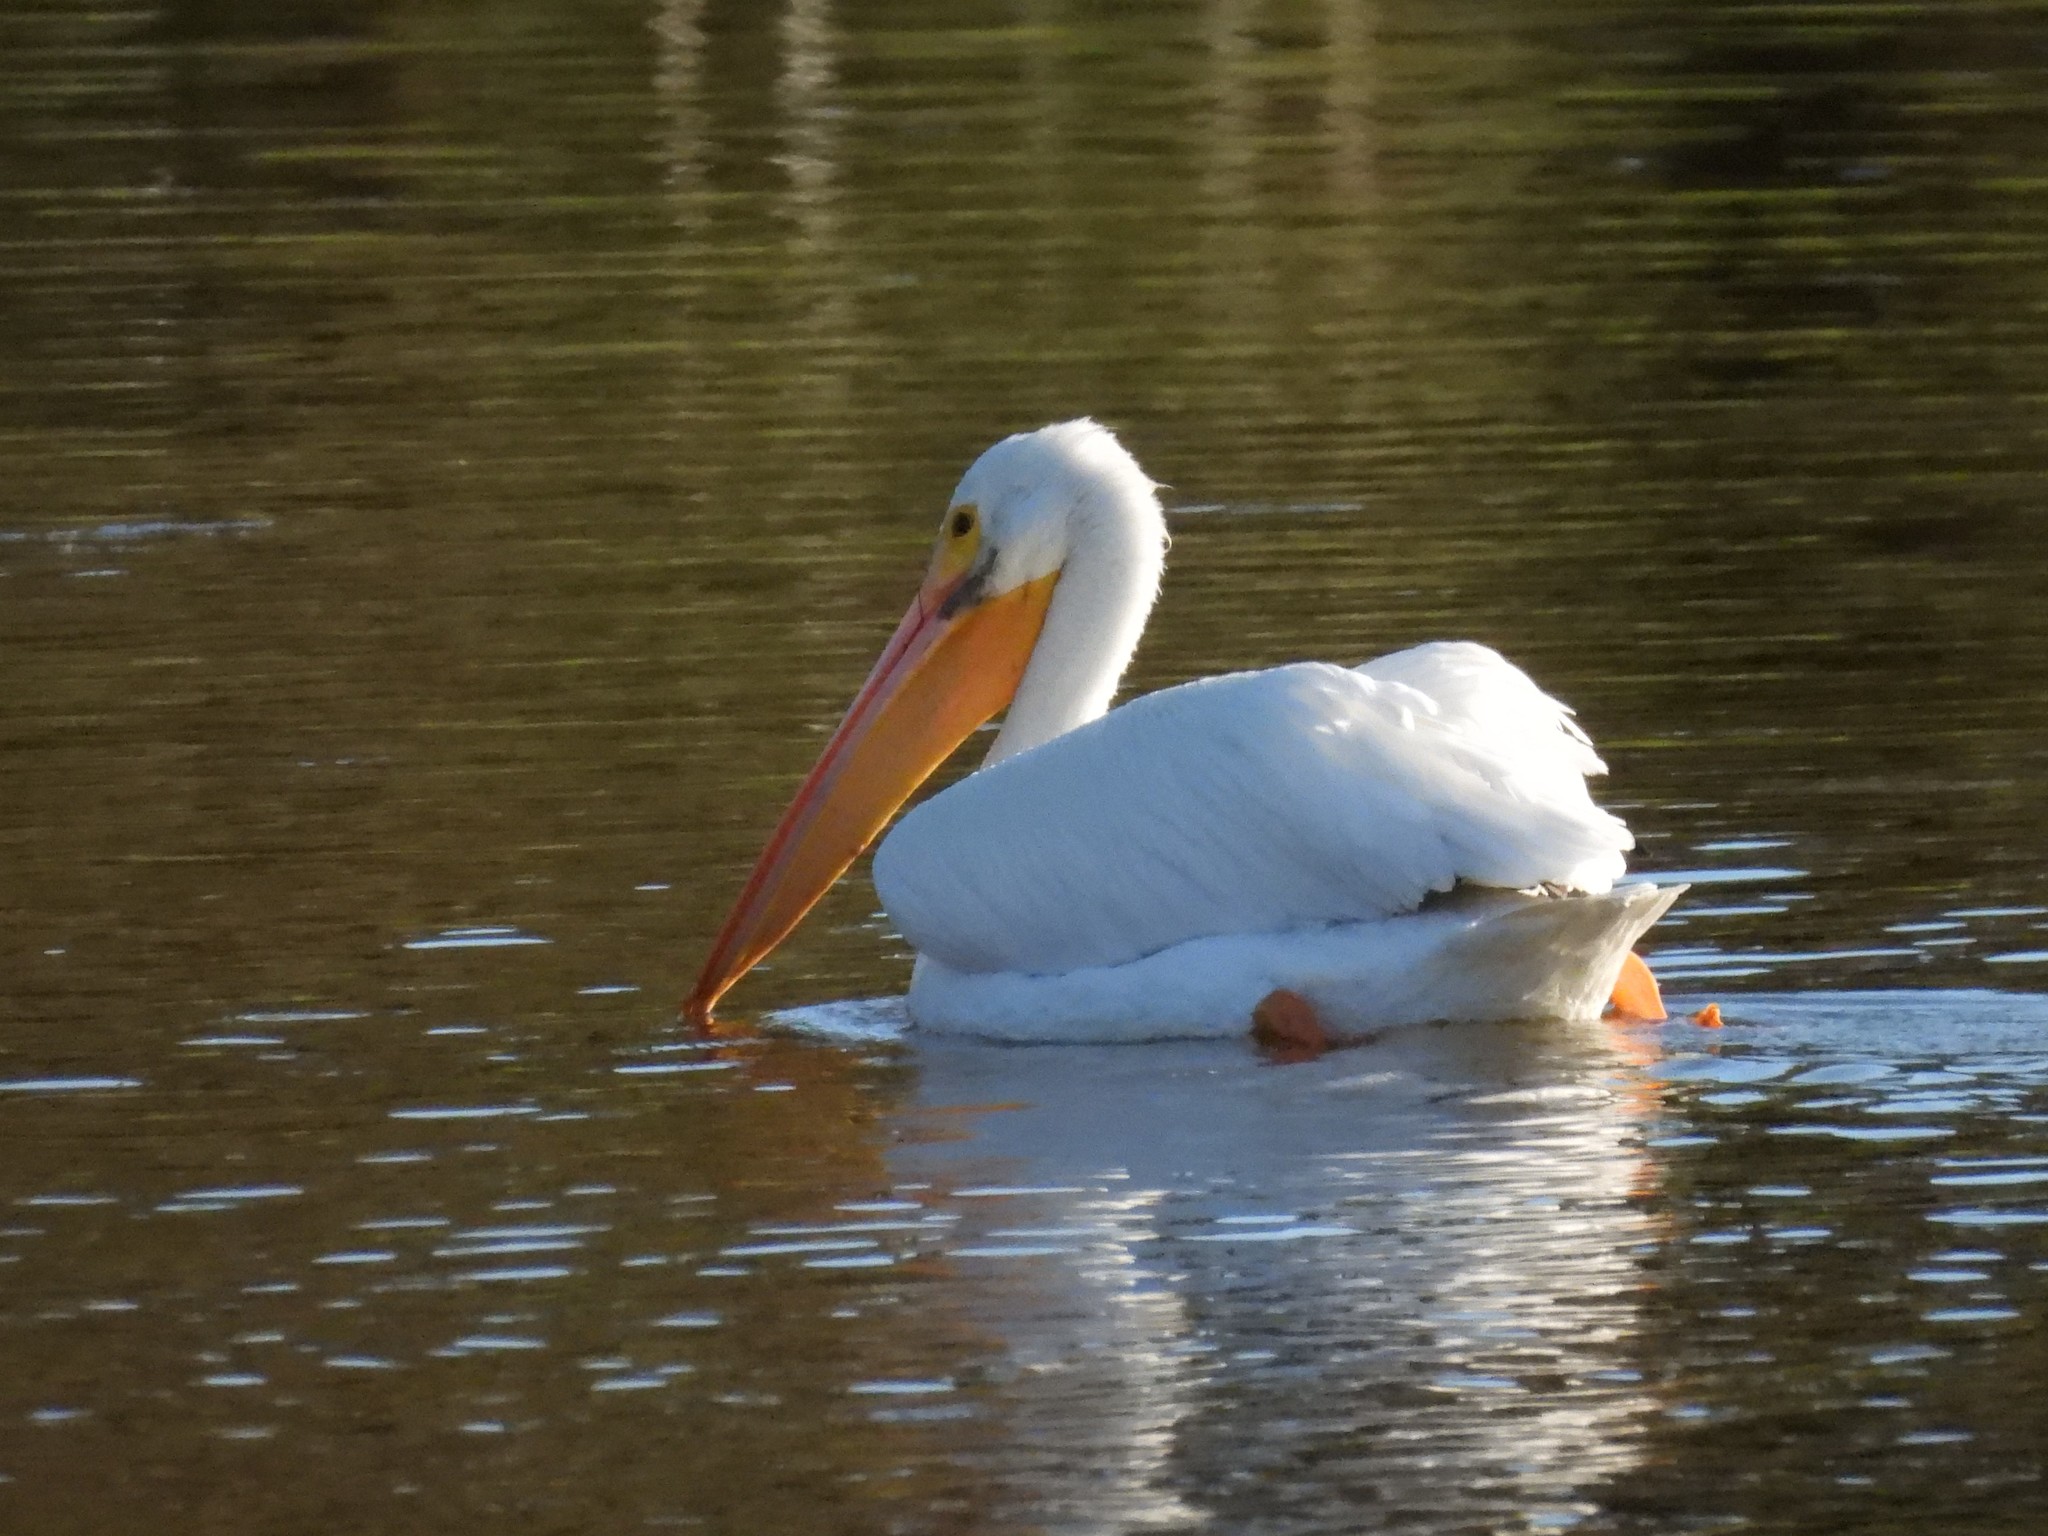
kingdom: Animalia
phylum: Chordata
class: Aves
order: Pelecaniformes
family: Pelecanidae
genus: Pelecanus
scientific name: Pelecanus erythrorhynchos
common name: American white pelican
